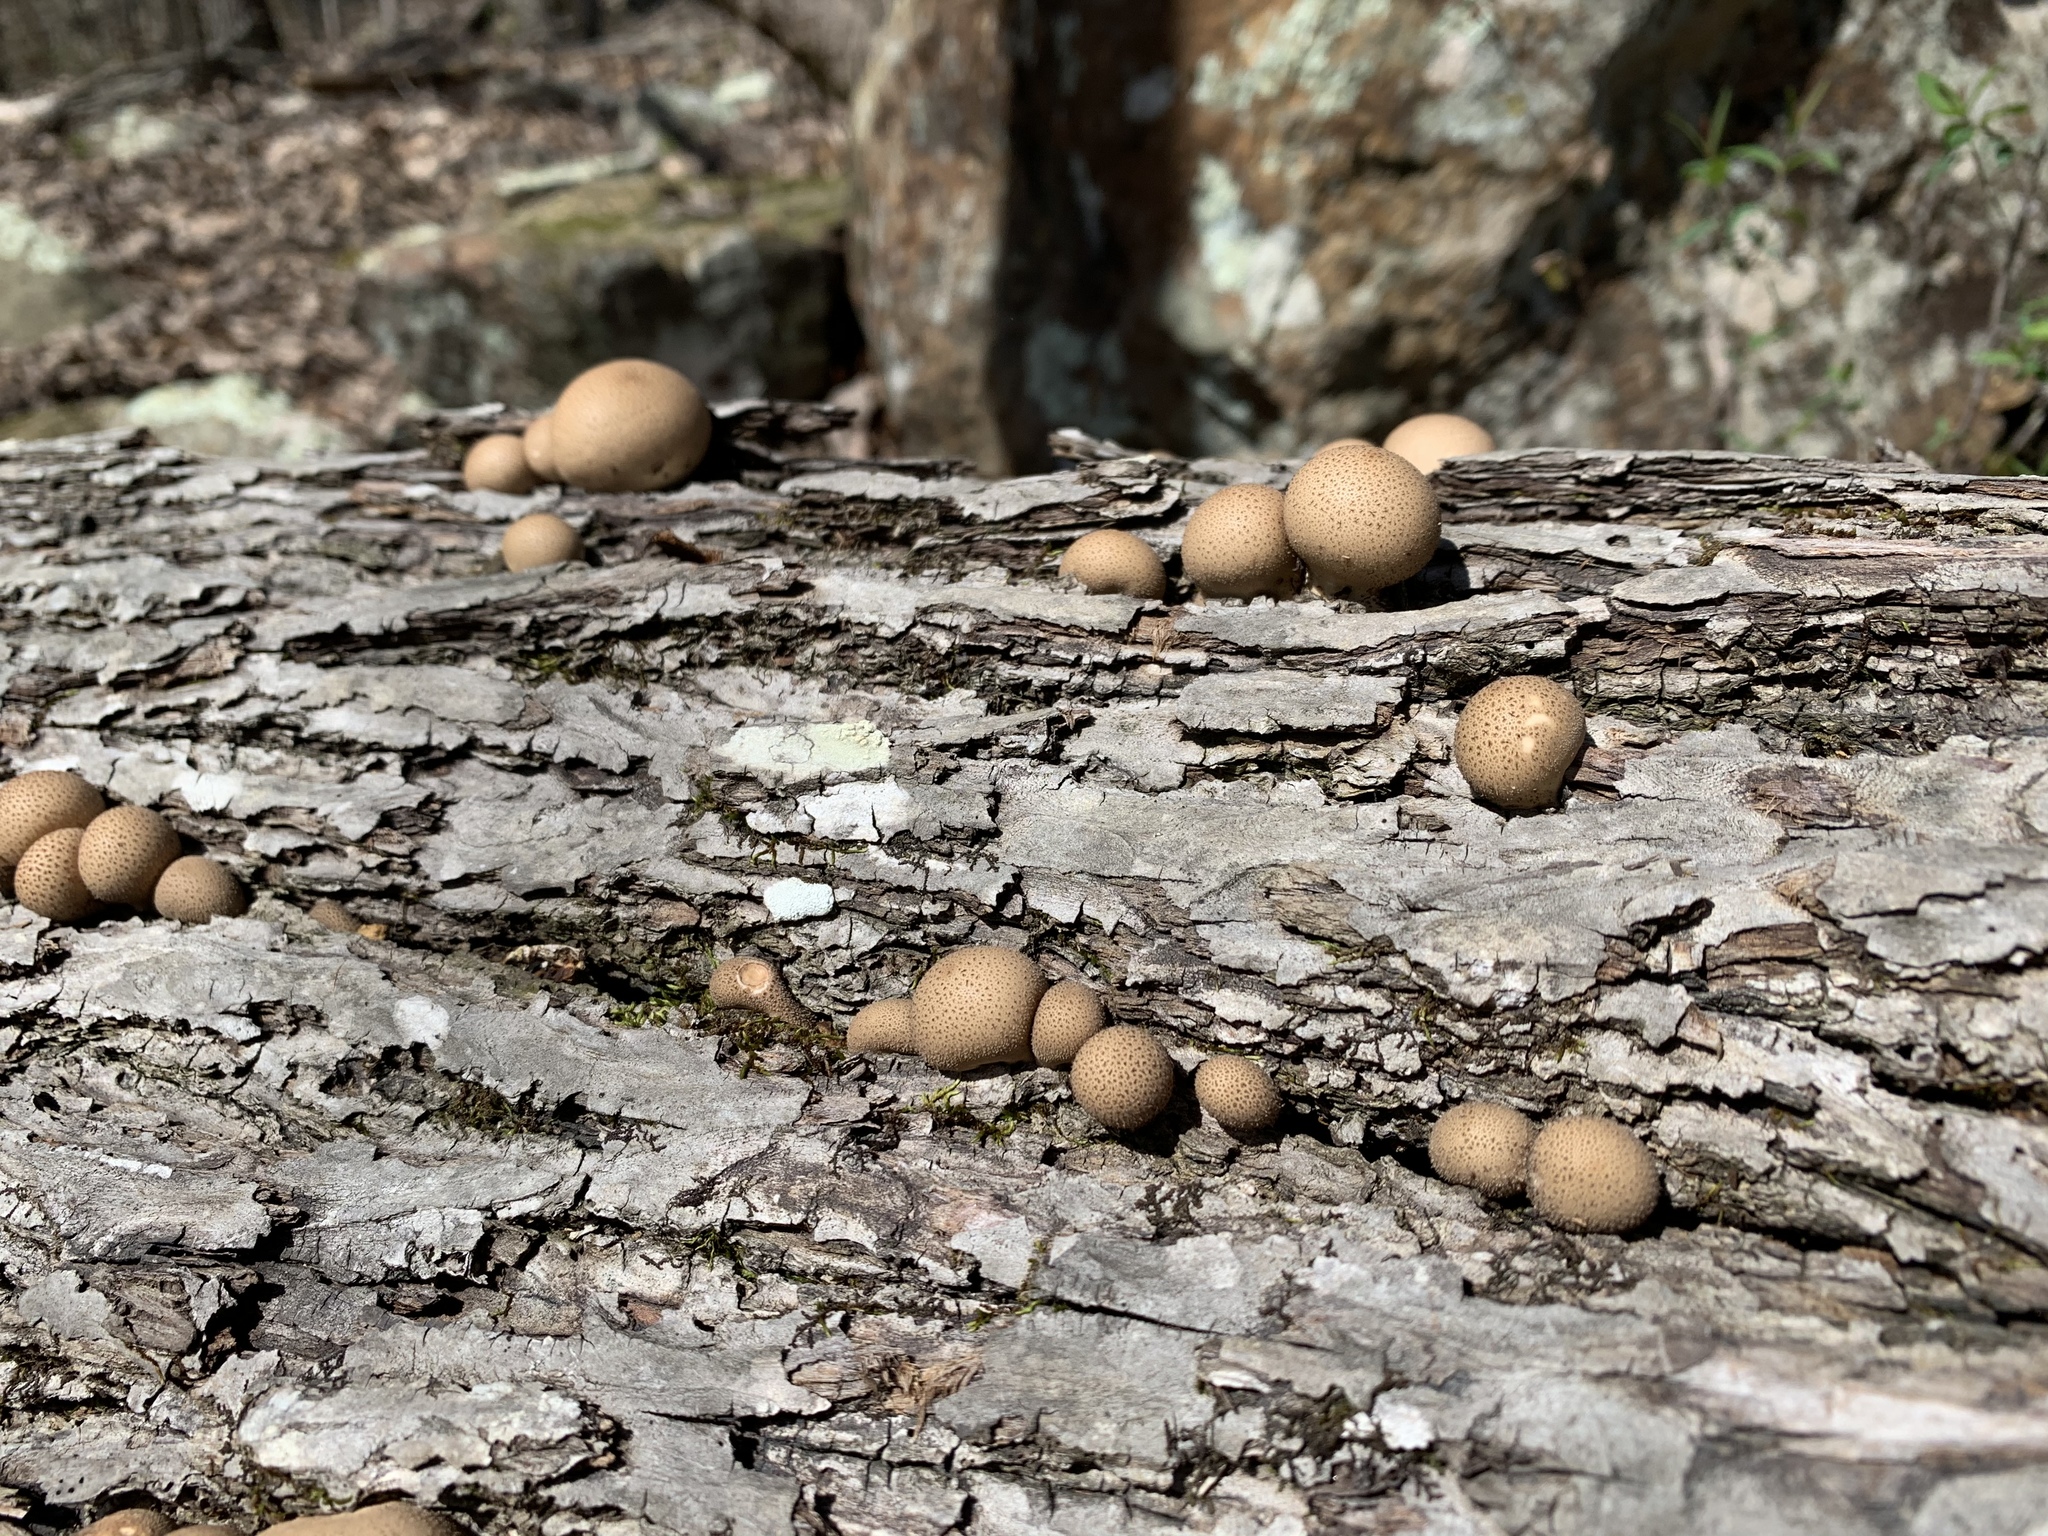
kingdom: Fungi
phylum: Basidiomycota
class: Agaricomycetes
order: Agaricales
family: Lycoperdaceae
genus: Apioperdon
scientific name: Apioperdon pyriforme
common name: Pear-shaped puffball
